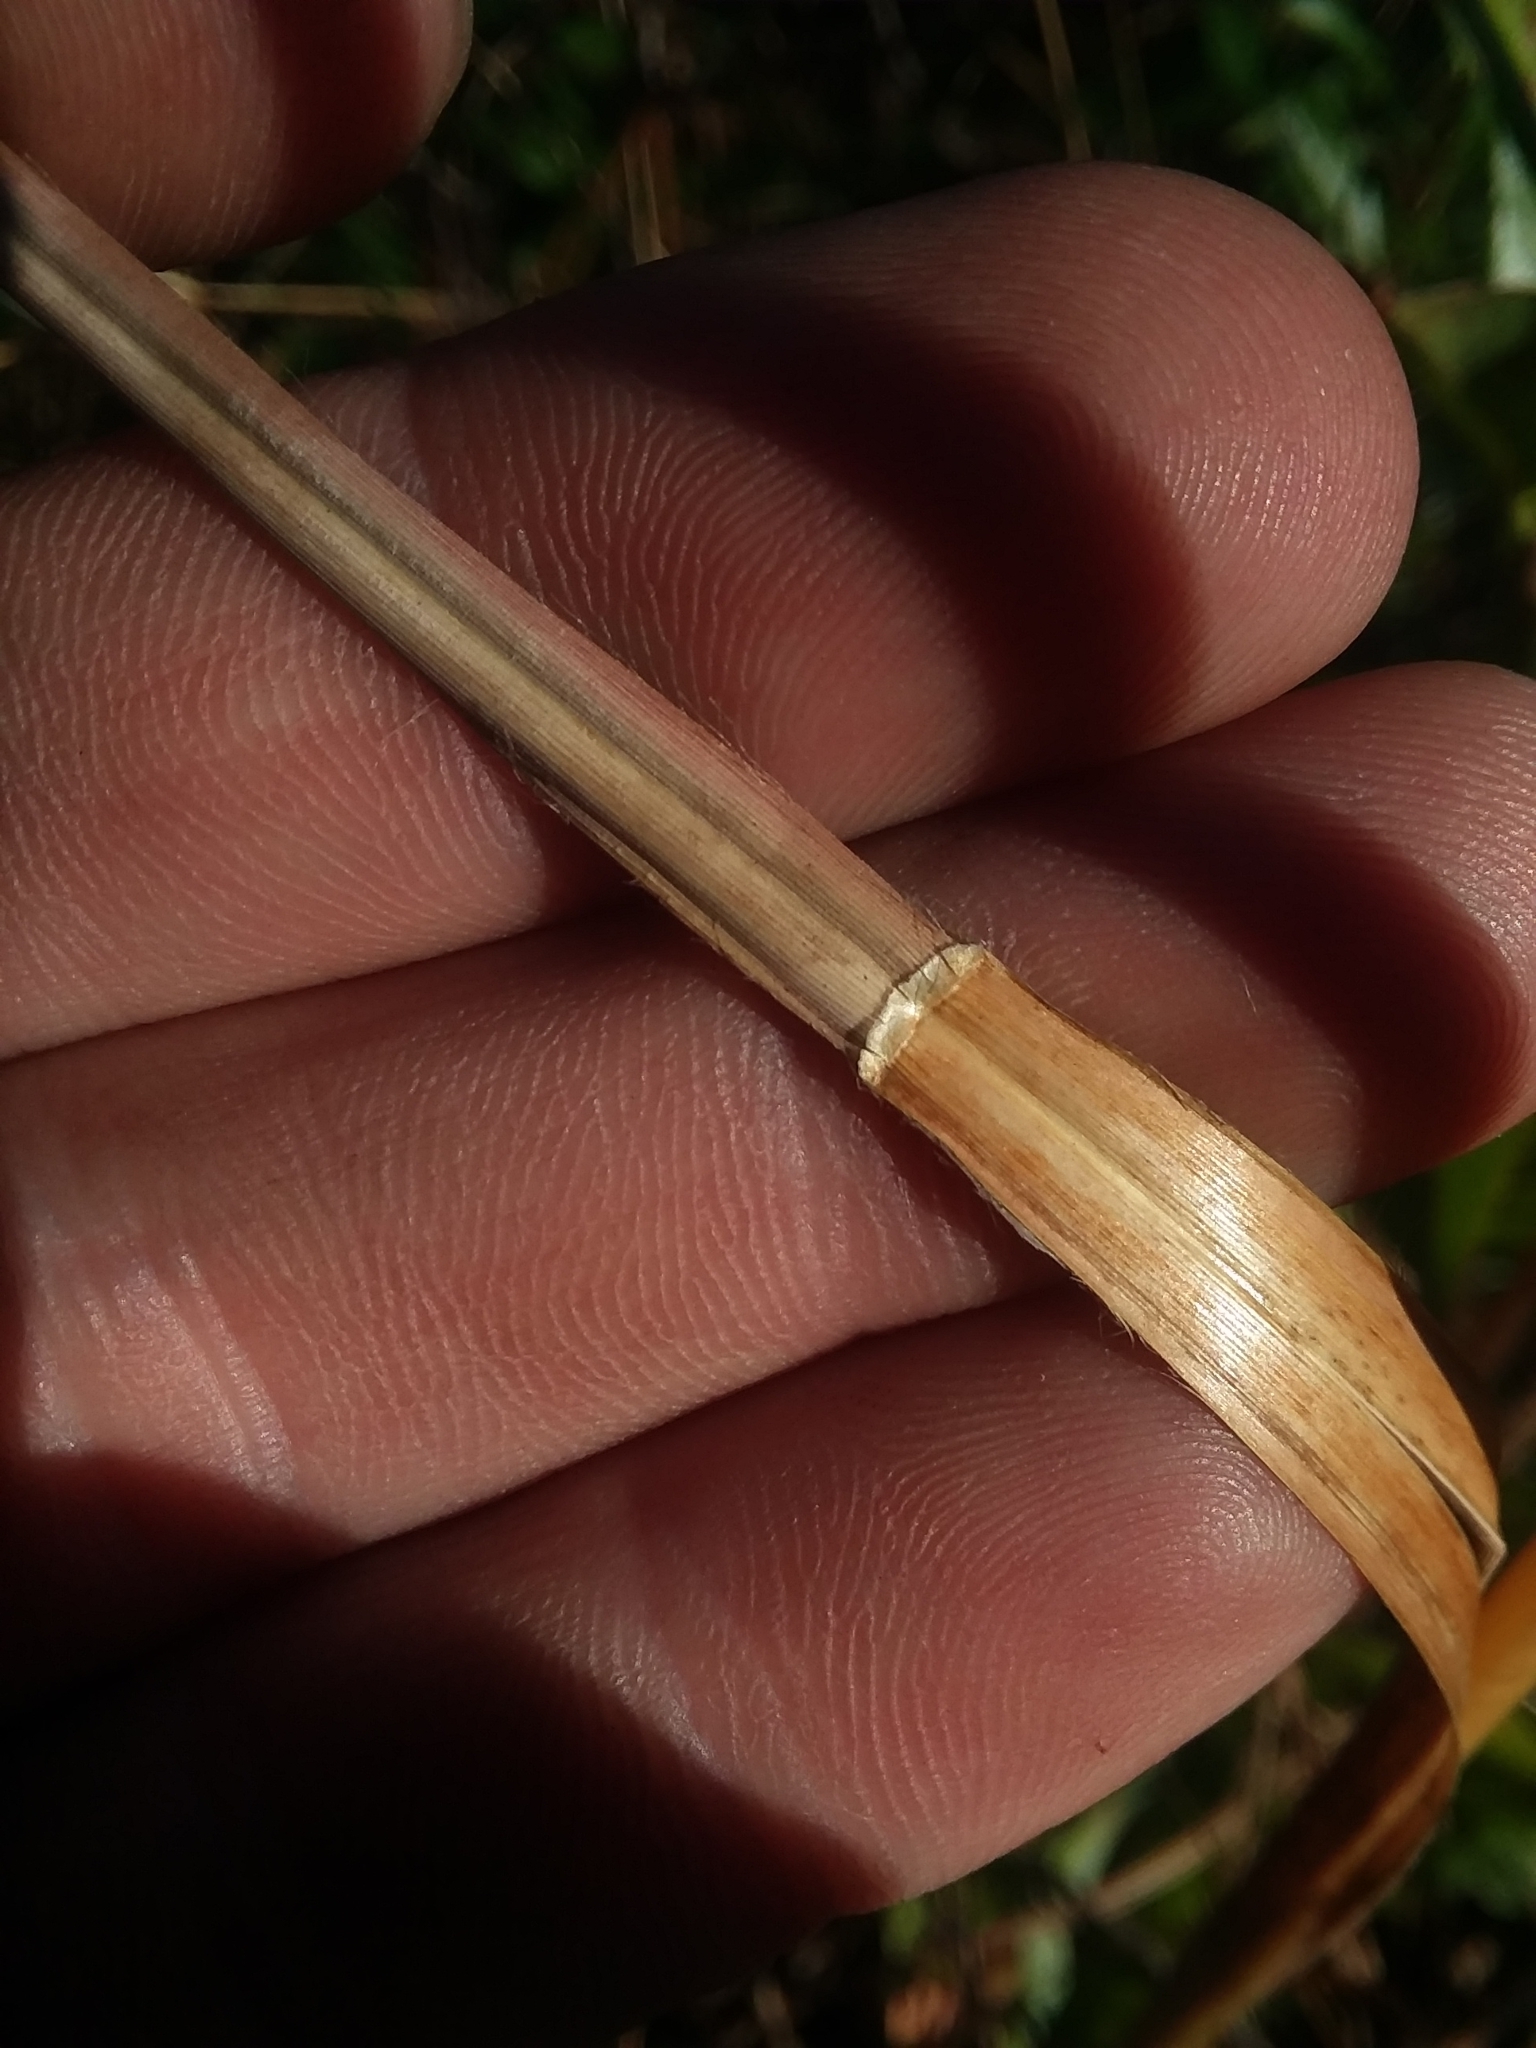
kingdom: Plantae
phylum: Tracheophyta
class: Liliopsida
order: Poales
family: Poaceae
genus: Andropogon
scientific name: Andropogon hirsutior
